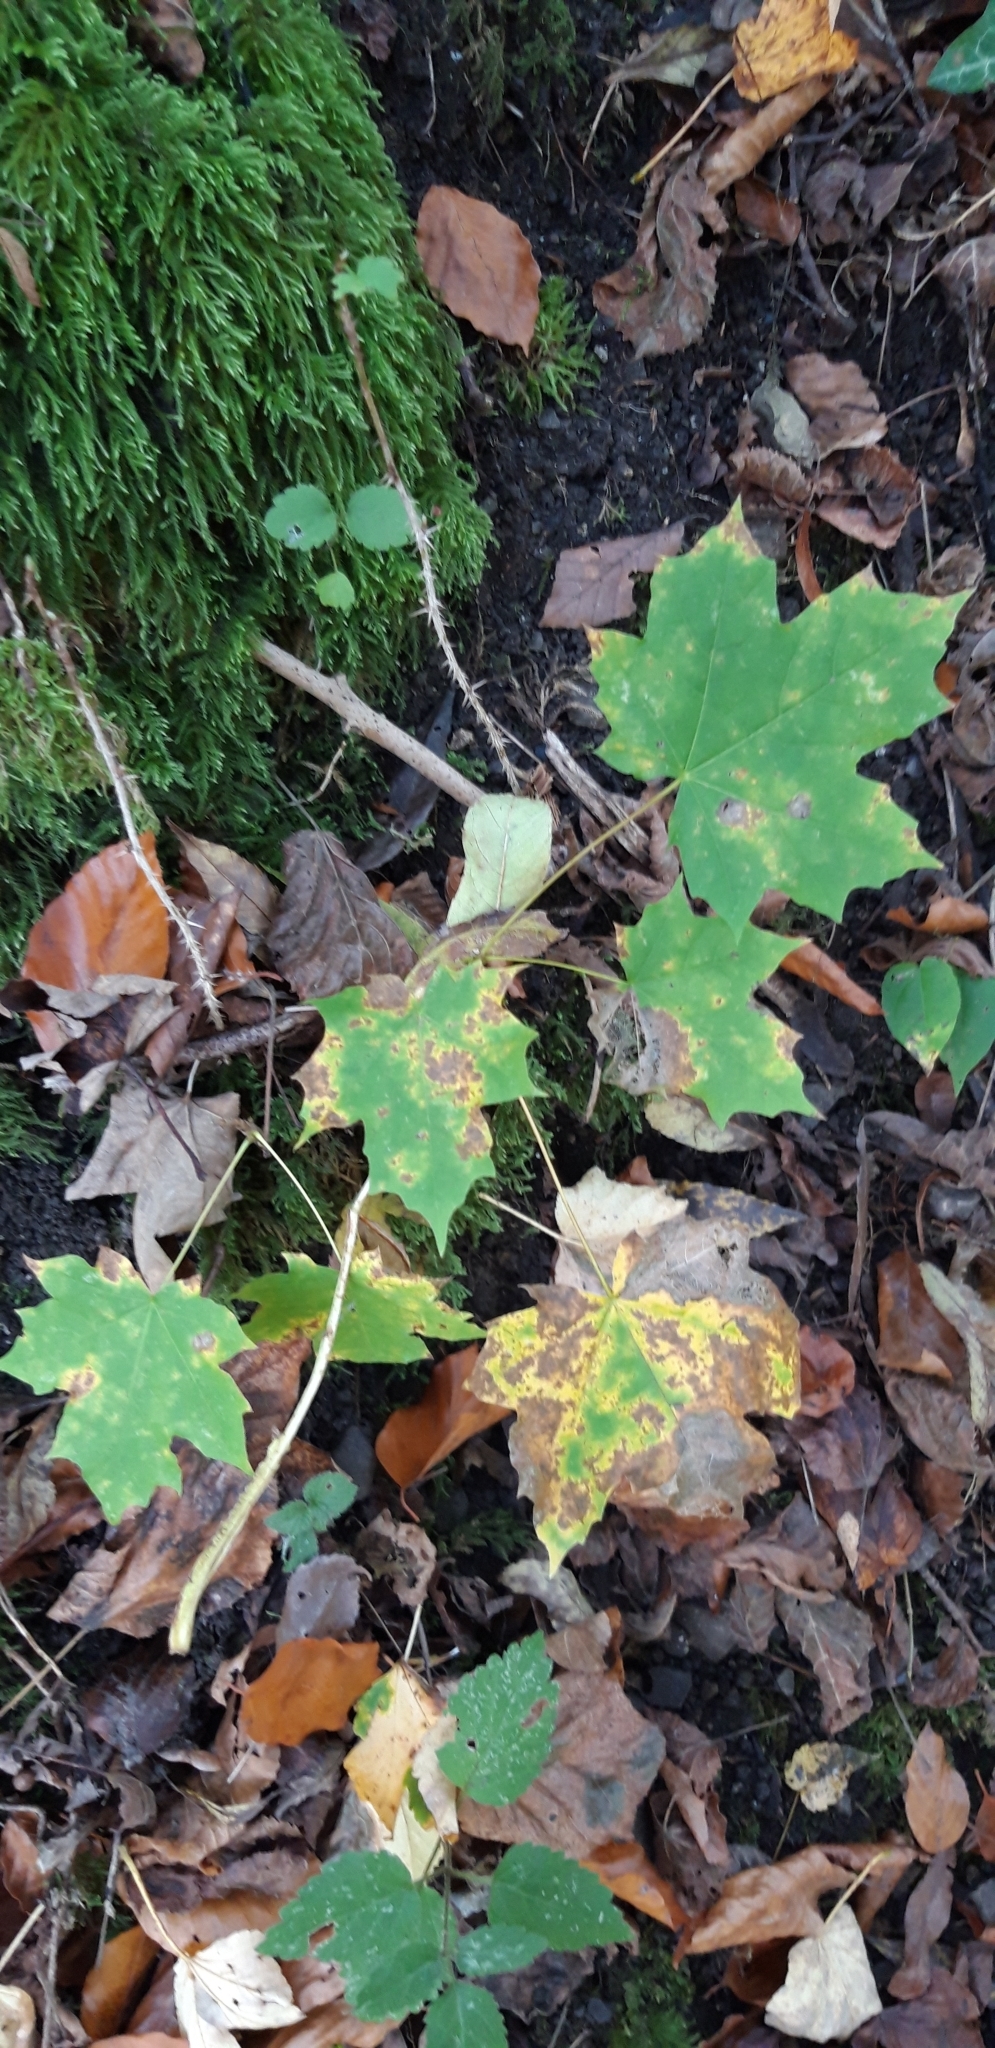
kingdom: Plantae
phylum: Tracheophyta
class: Magnoliopsida
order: Sapindales
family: Sapindaceae
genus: Acer
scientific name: Acer platanoides
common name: Norway maple
